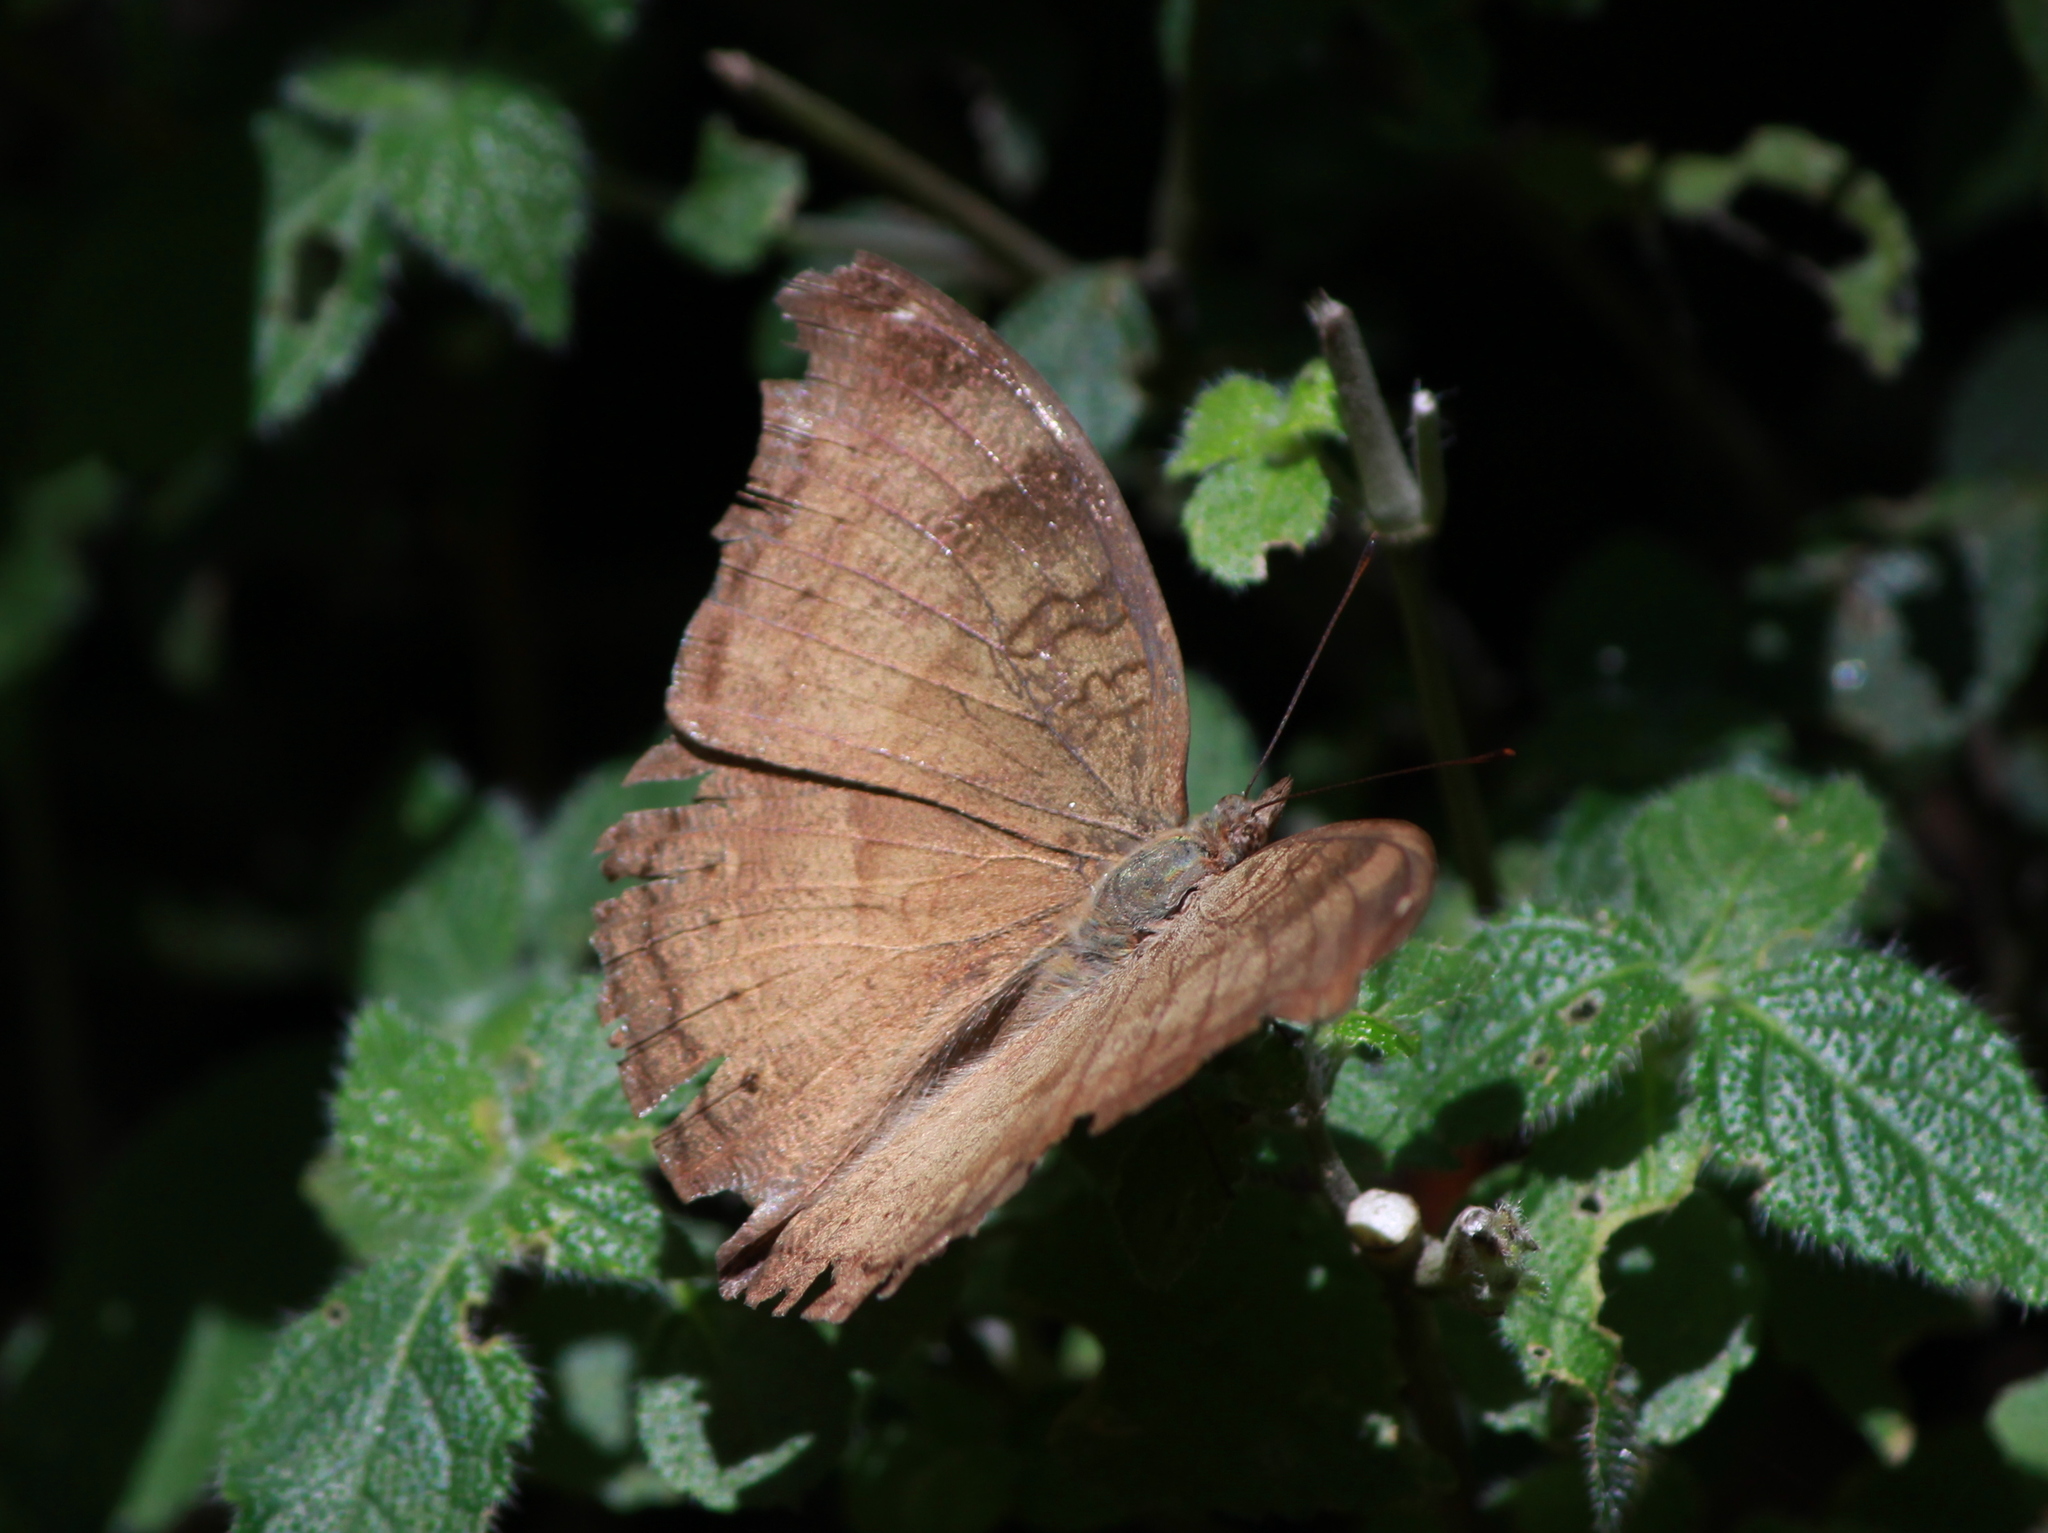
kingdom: Animalia
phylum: Arthropoda
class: Insecta
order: Lepidoptera
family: Nymphalidae
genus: Junonia
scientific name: Junonia iphita
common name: Chocolate pansy
